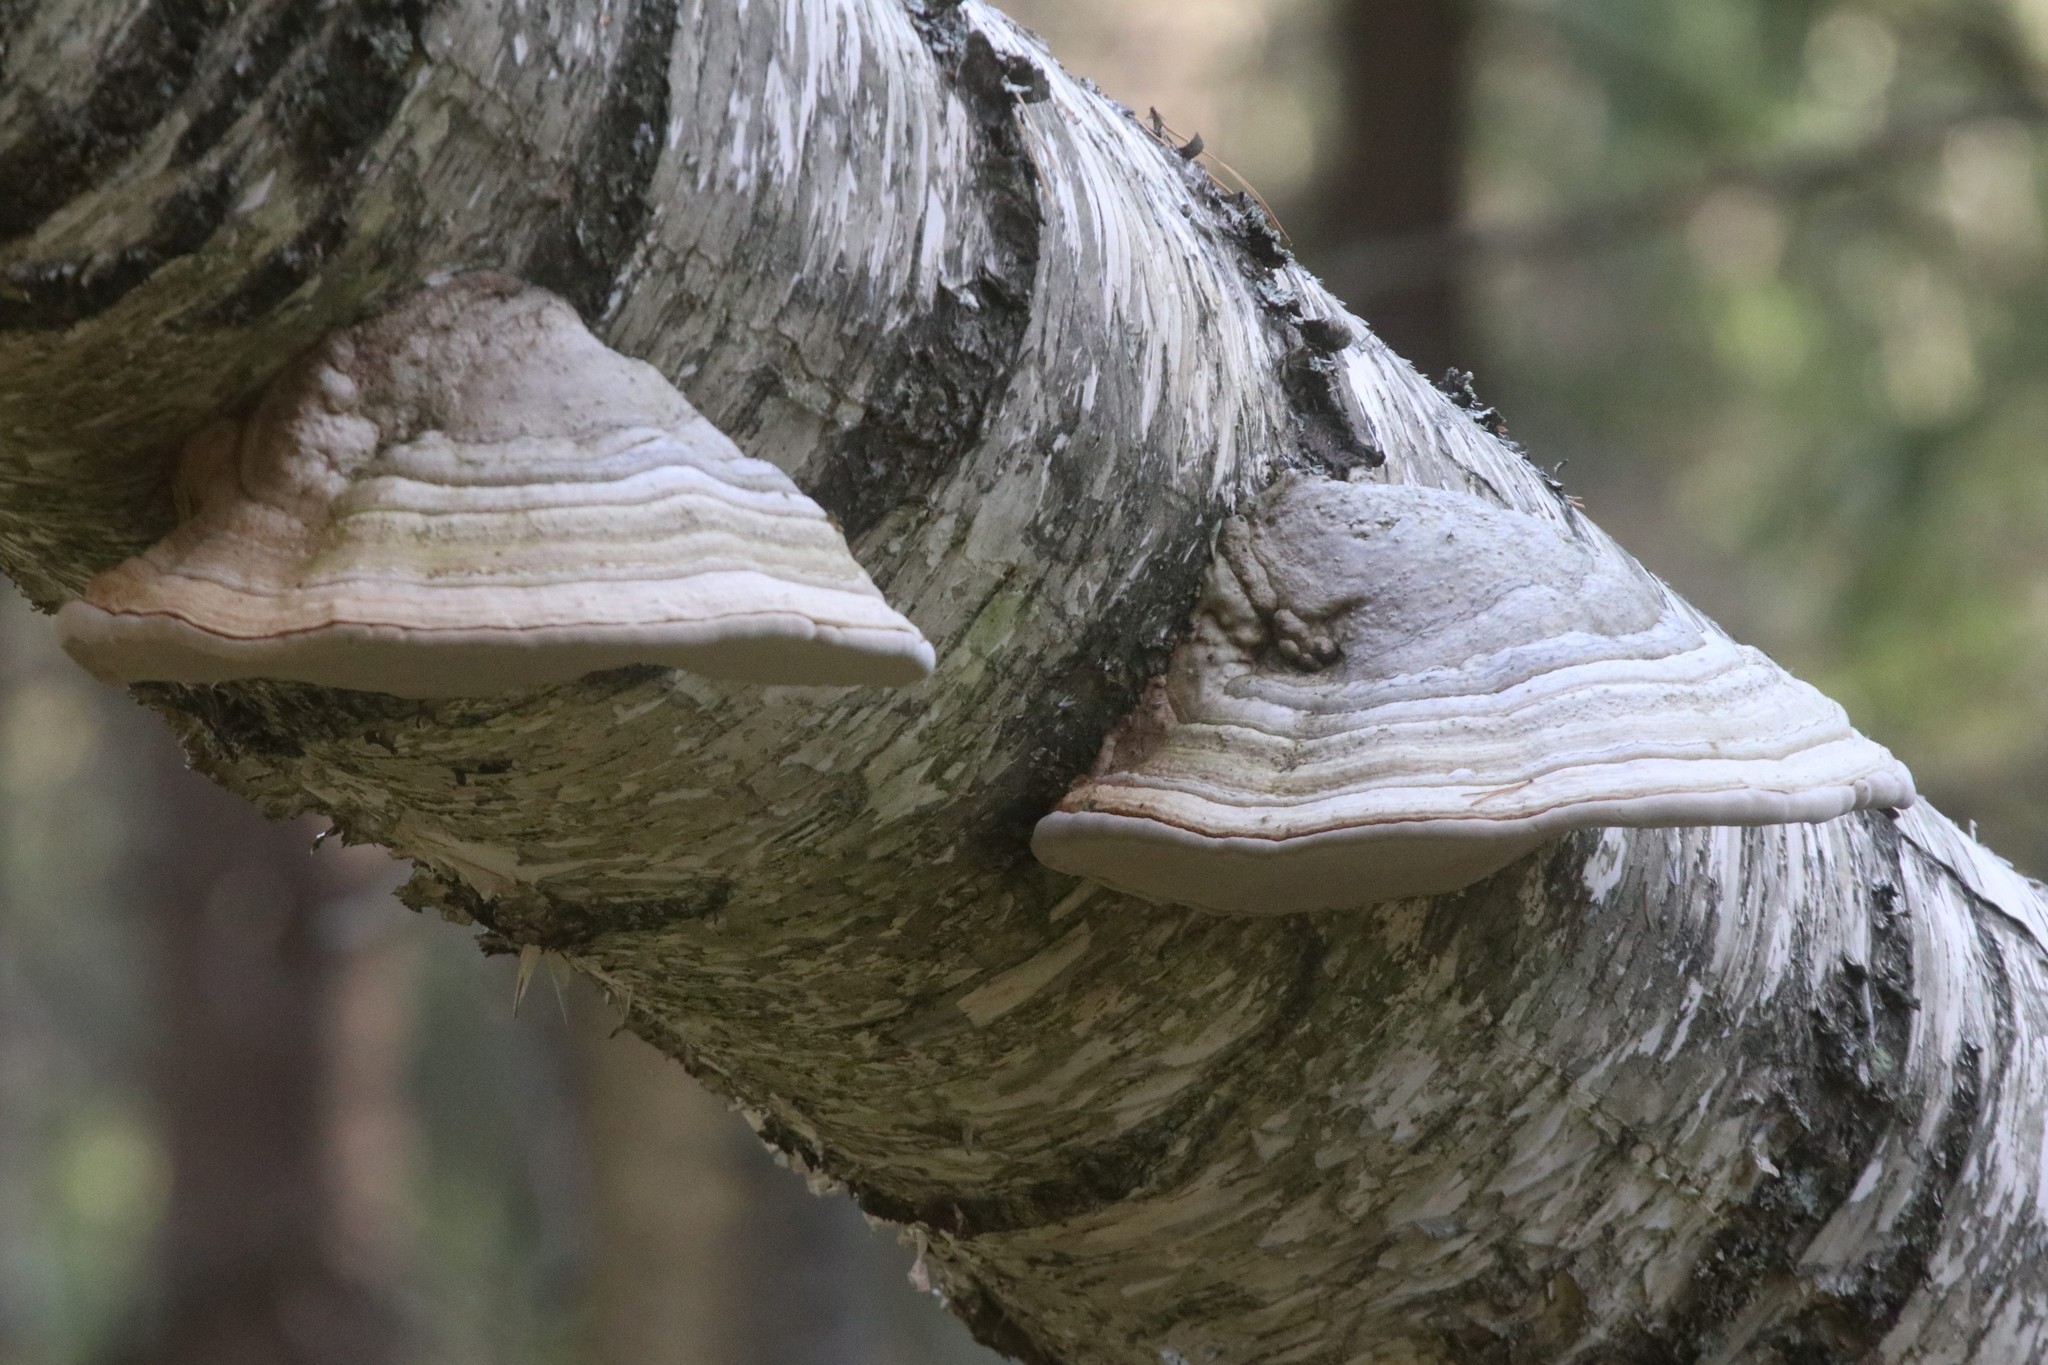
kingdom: Fungi
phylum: Basidiomycota
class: Agaricomycetes
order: Polyporales
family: Polyporaceae
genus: Fomes
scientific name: Fomes fomentarius
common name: Hoof fungus
